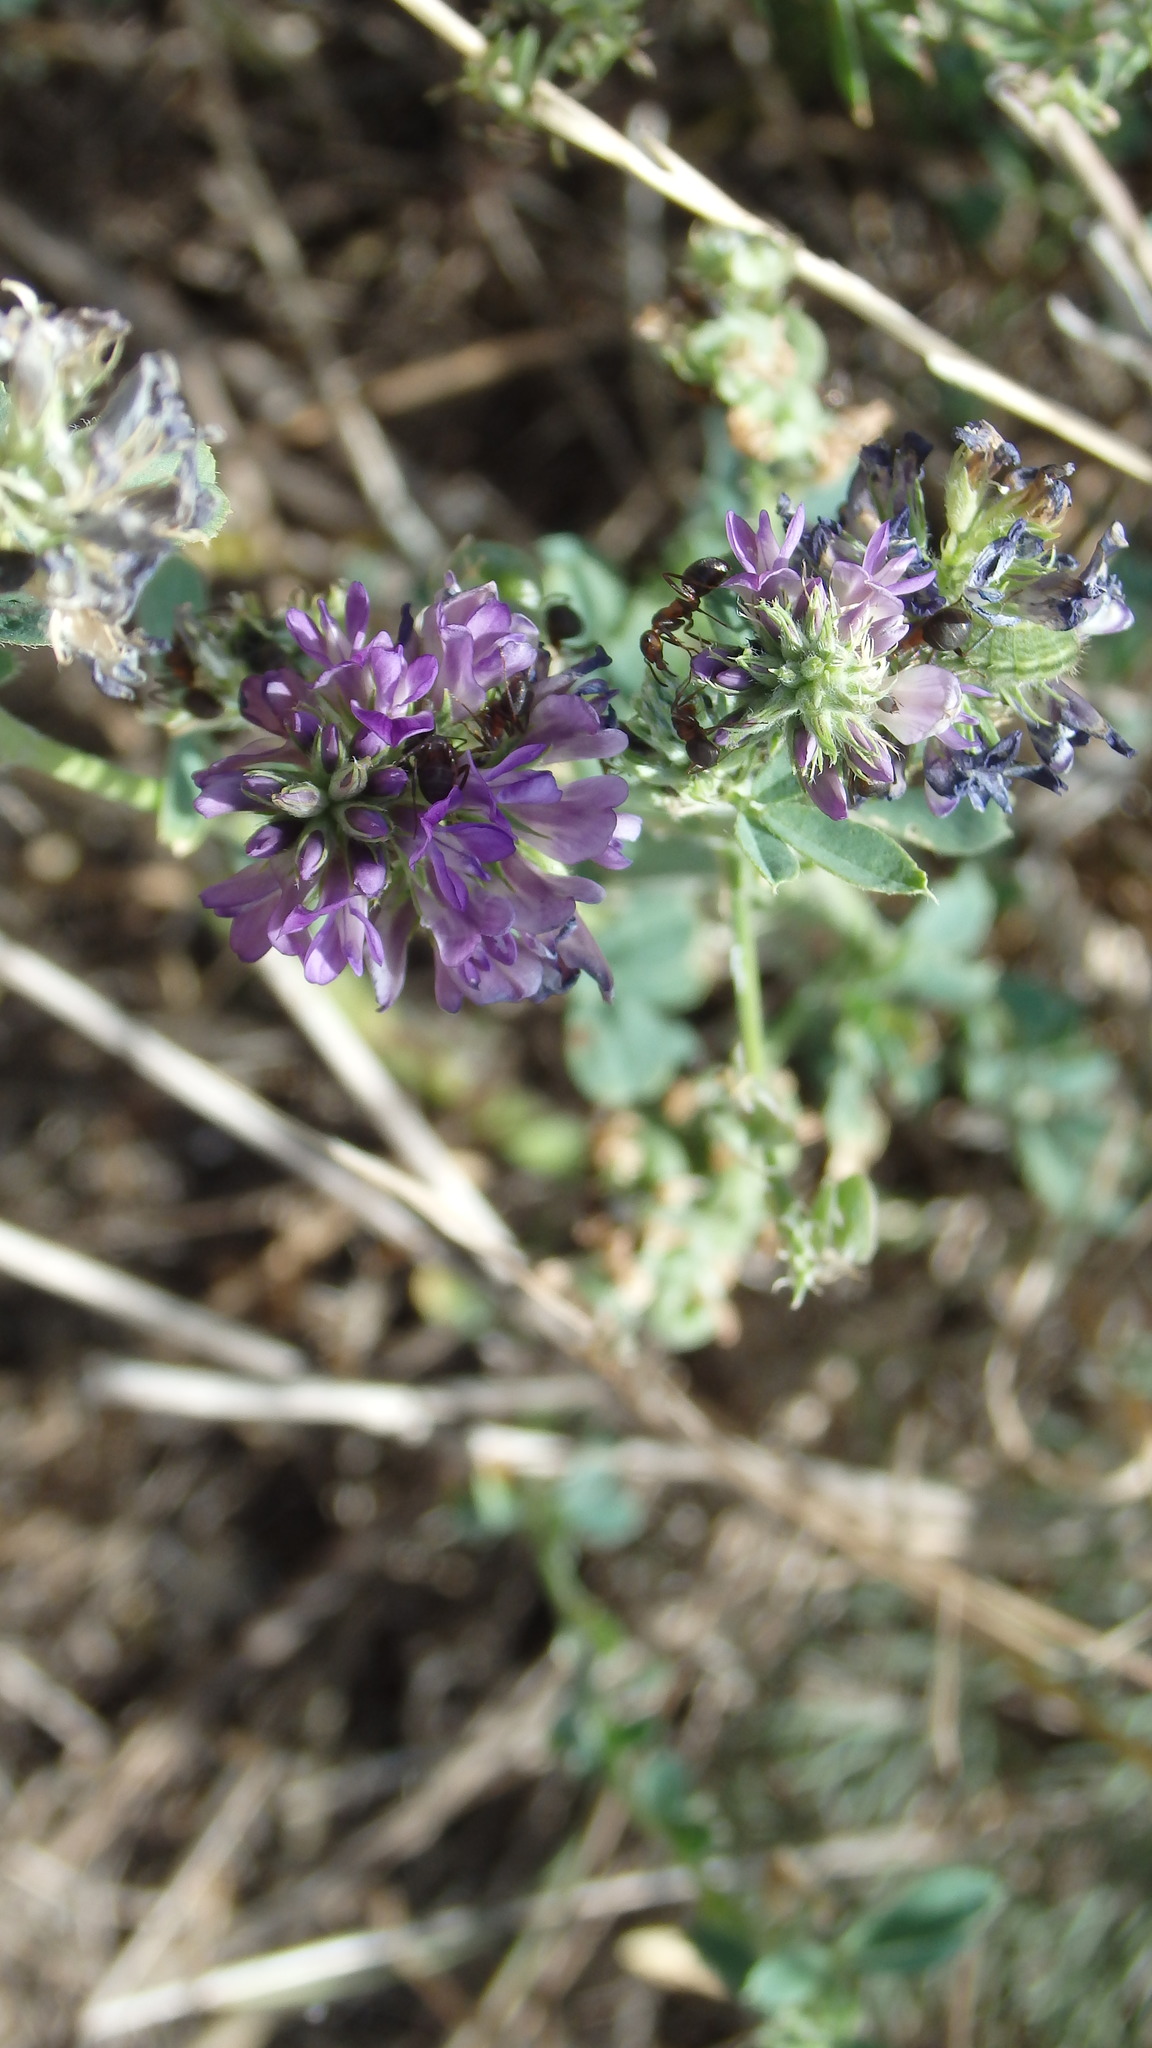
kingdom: Plantae
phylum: Tracheophyta
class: Magnoliopsida
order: Fabales
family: Fabaceae
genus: Medicago
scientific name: Medicago sativa
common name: Alfalfa
